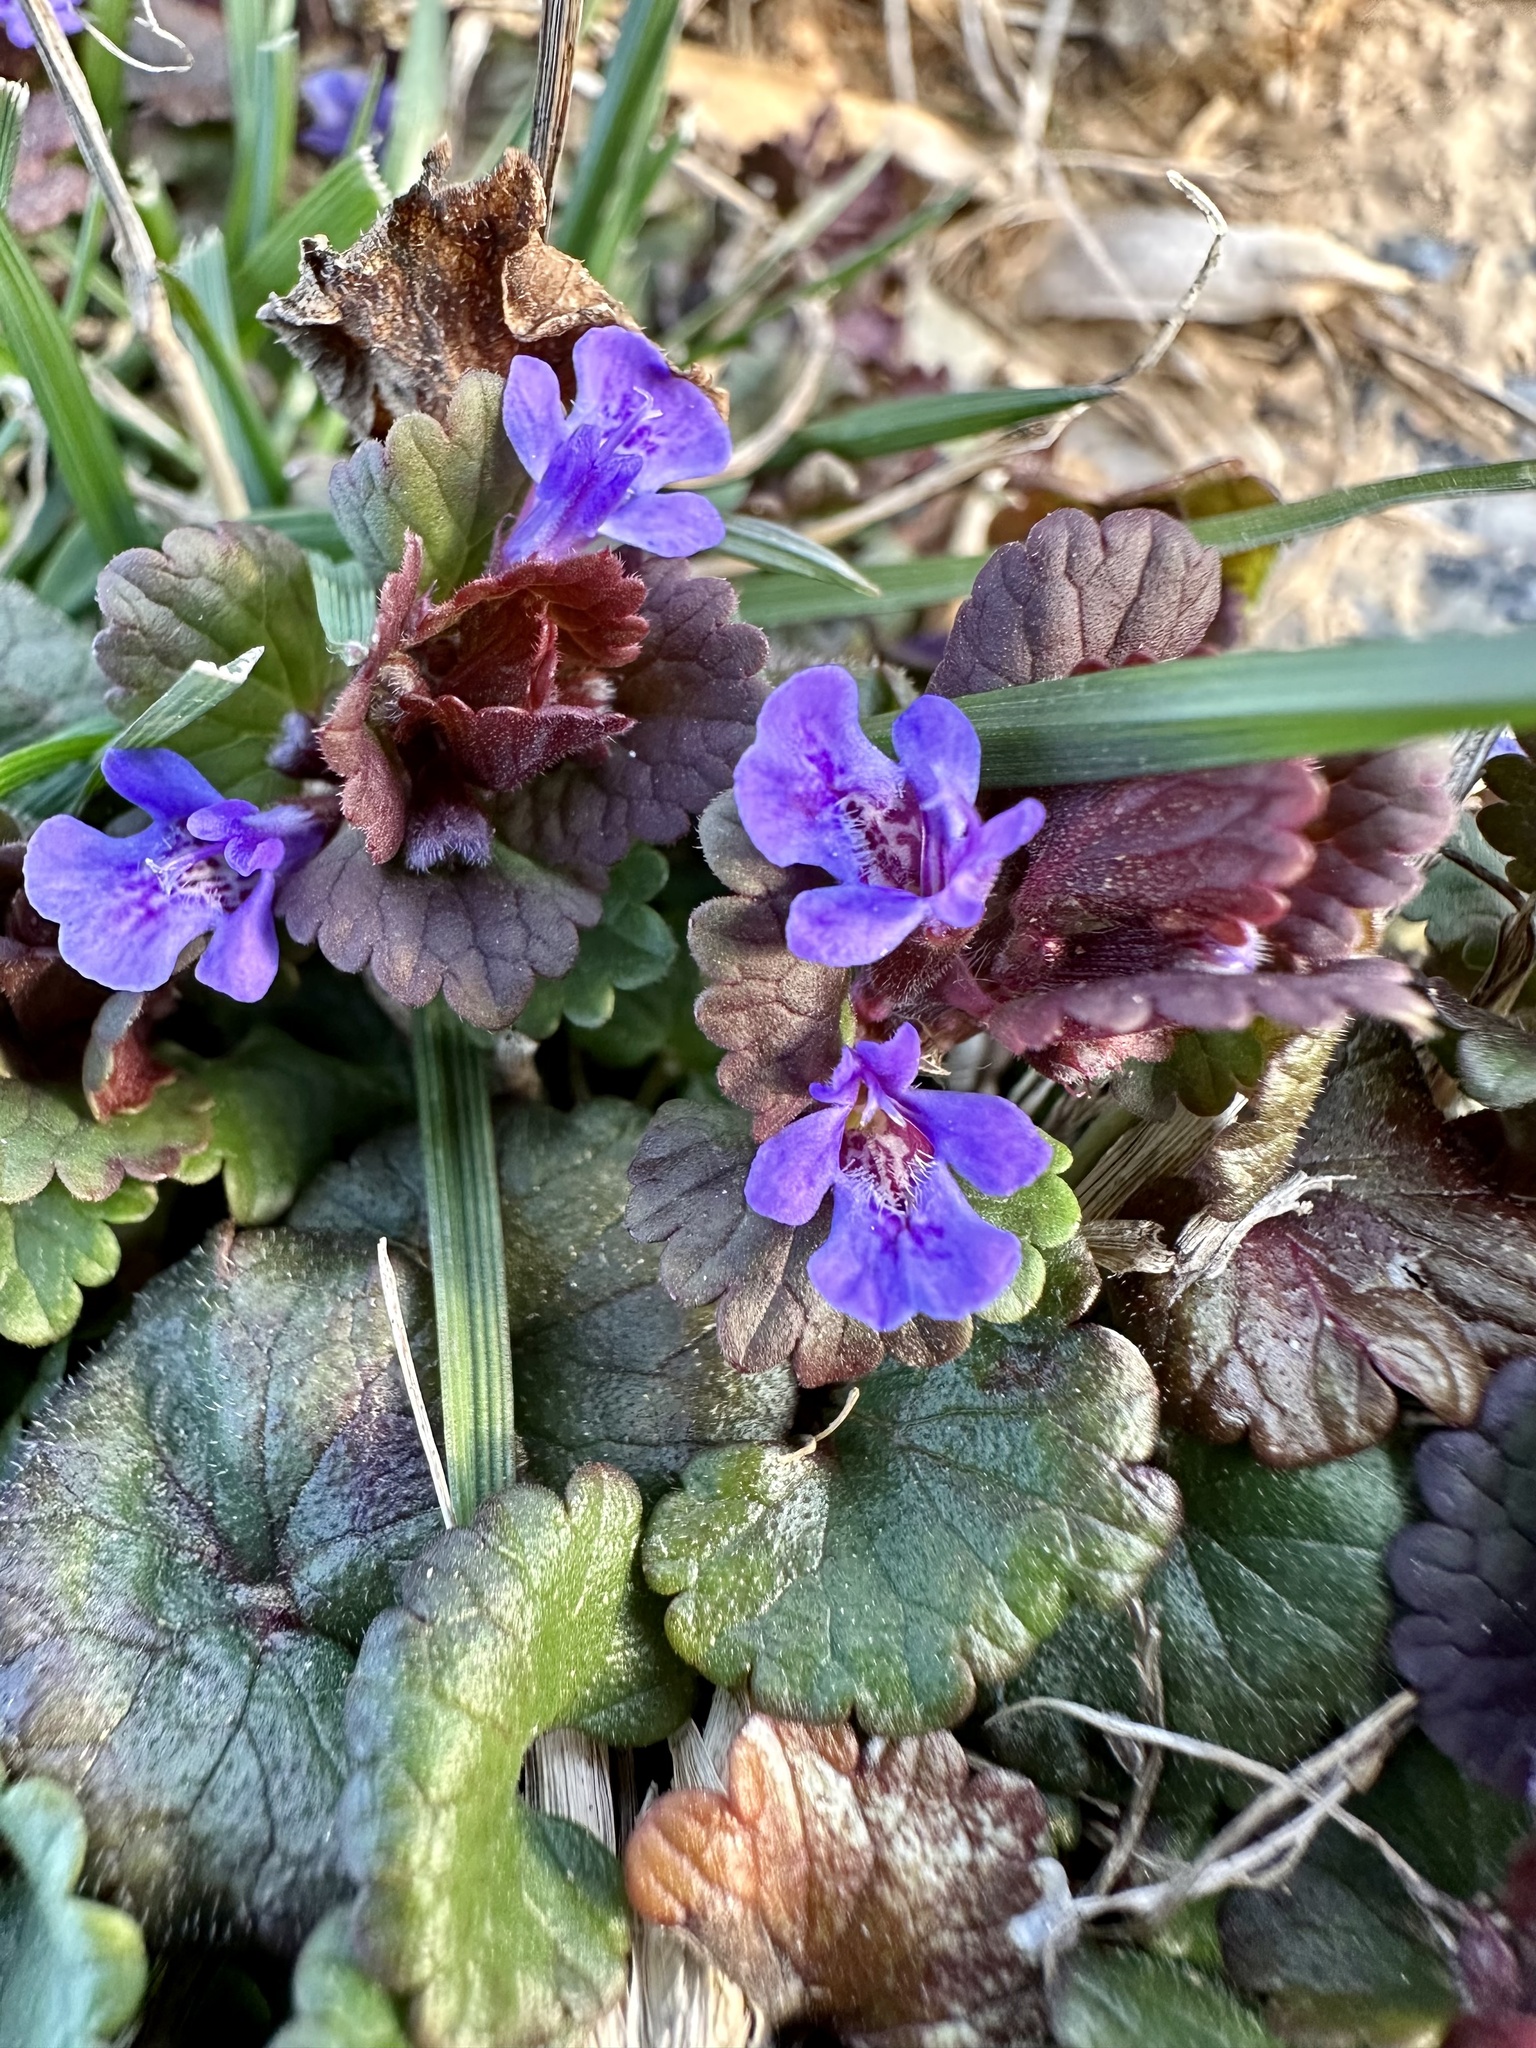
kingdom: Plantae
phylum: Tracheophyta
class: Magnoliopsida
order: Lamiales
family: Lamiaceae
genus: Glechoma
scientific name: Glechoma hederacea
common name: Ground ivy
